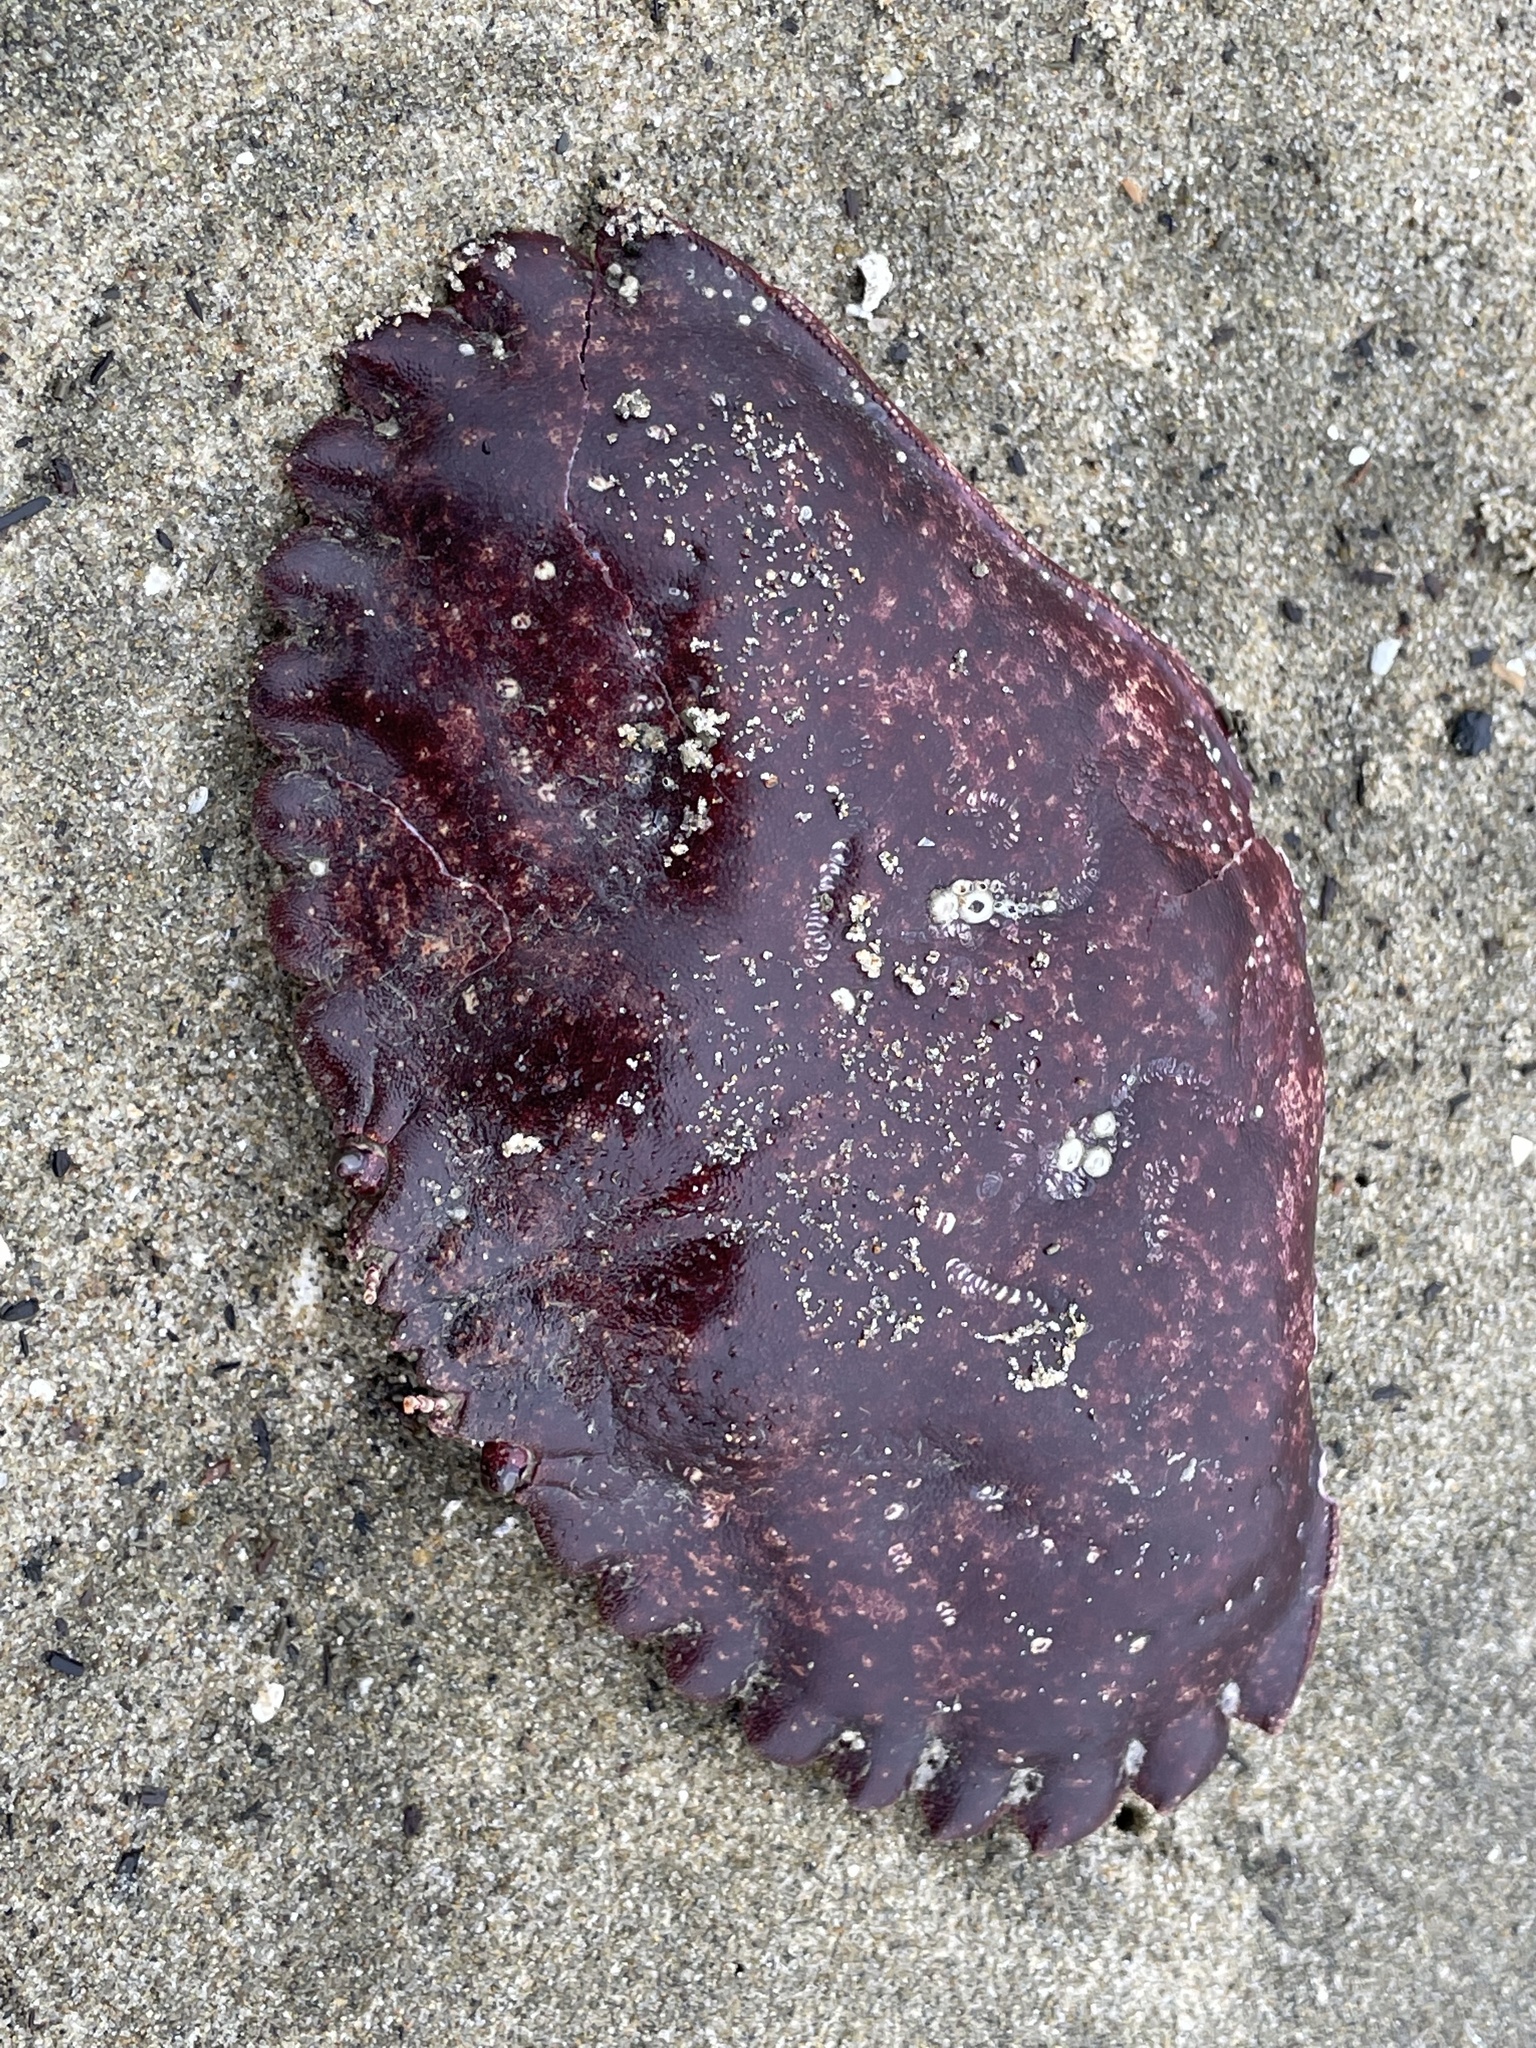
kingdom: Animalia
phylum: Arthropoda
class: Malacostraca
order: Decapoda
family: Cancridae
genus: Cancer
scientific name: Cancer productus
